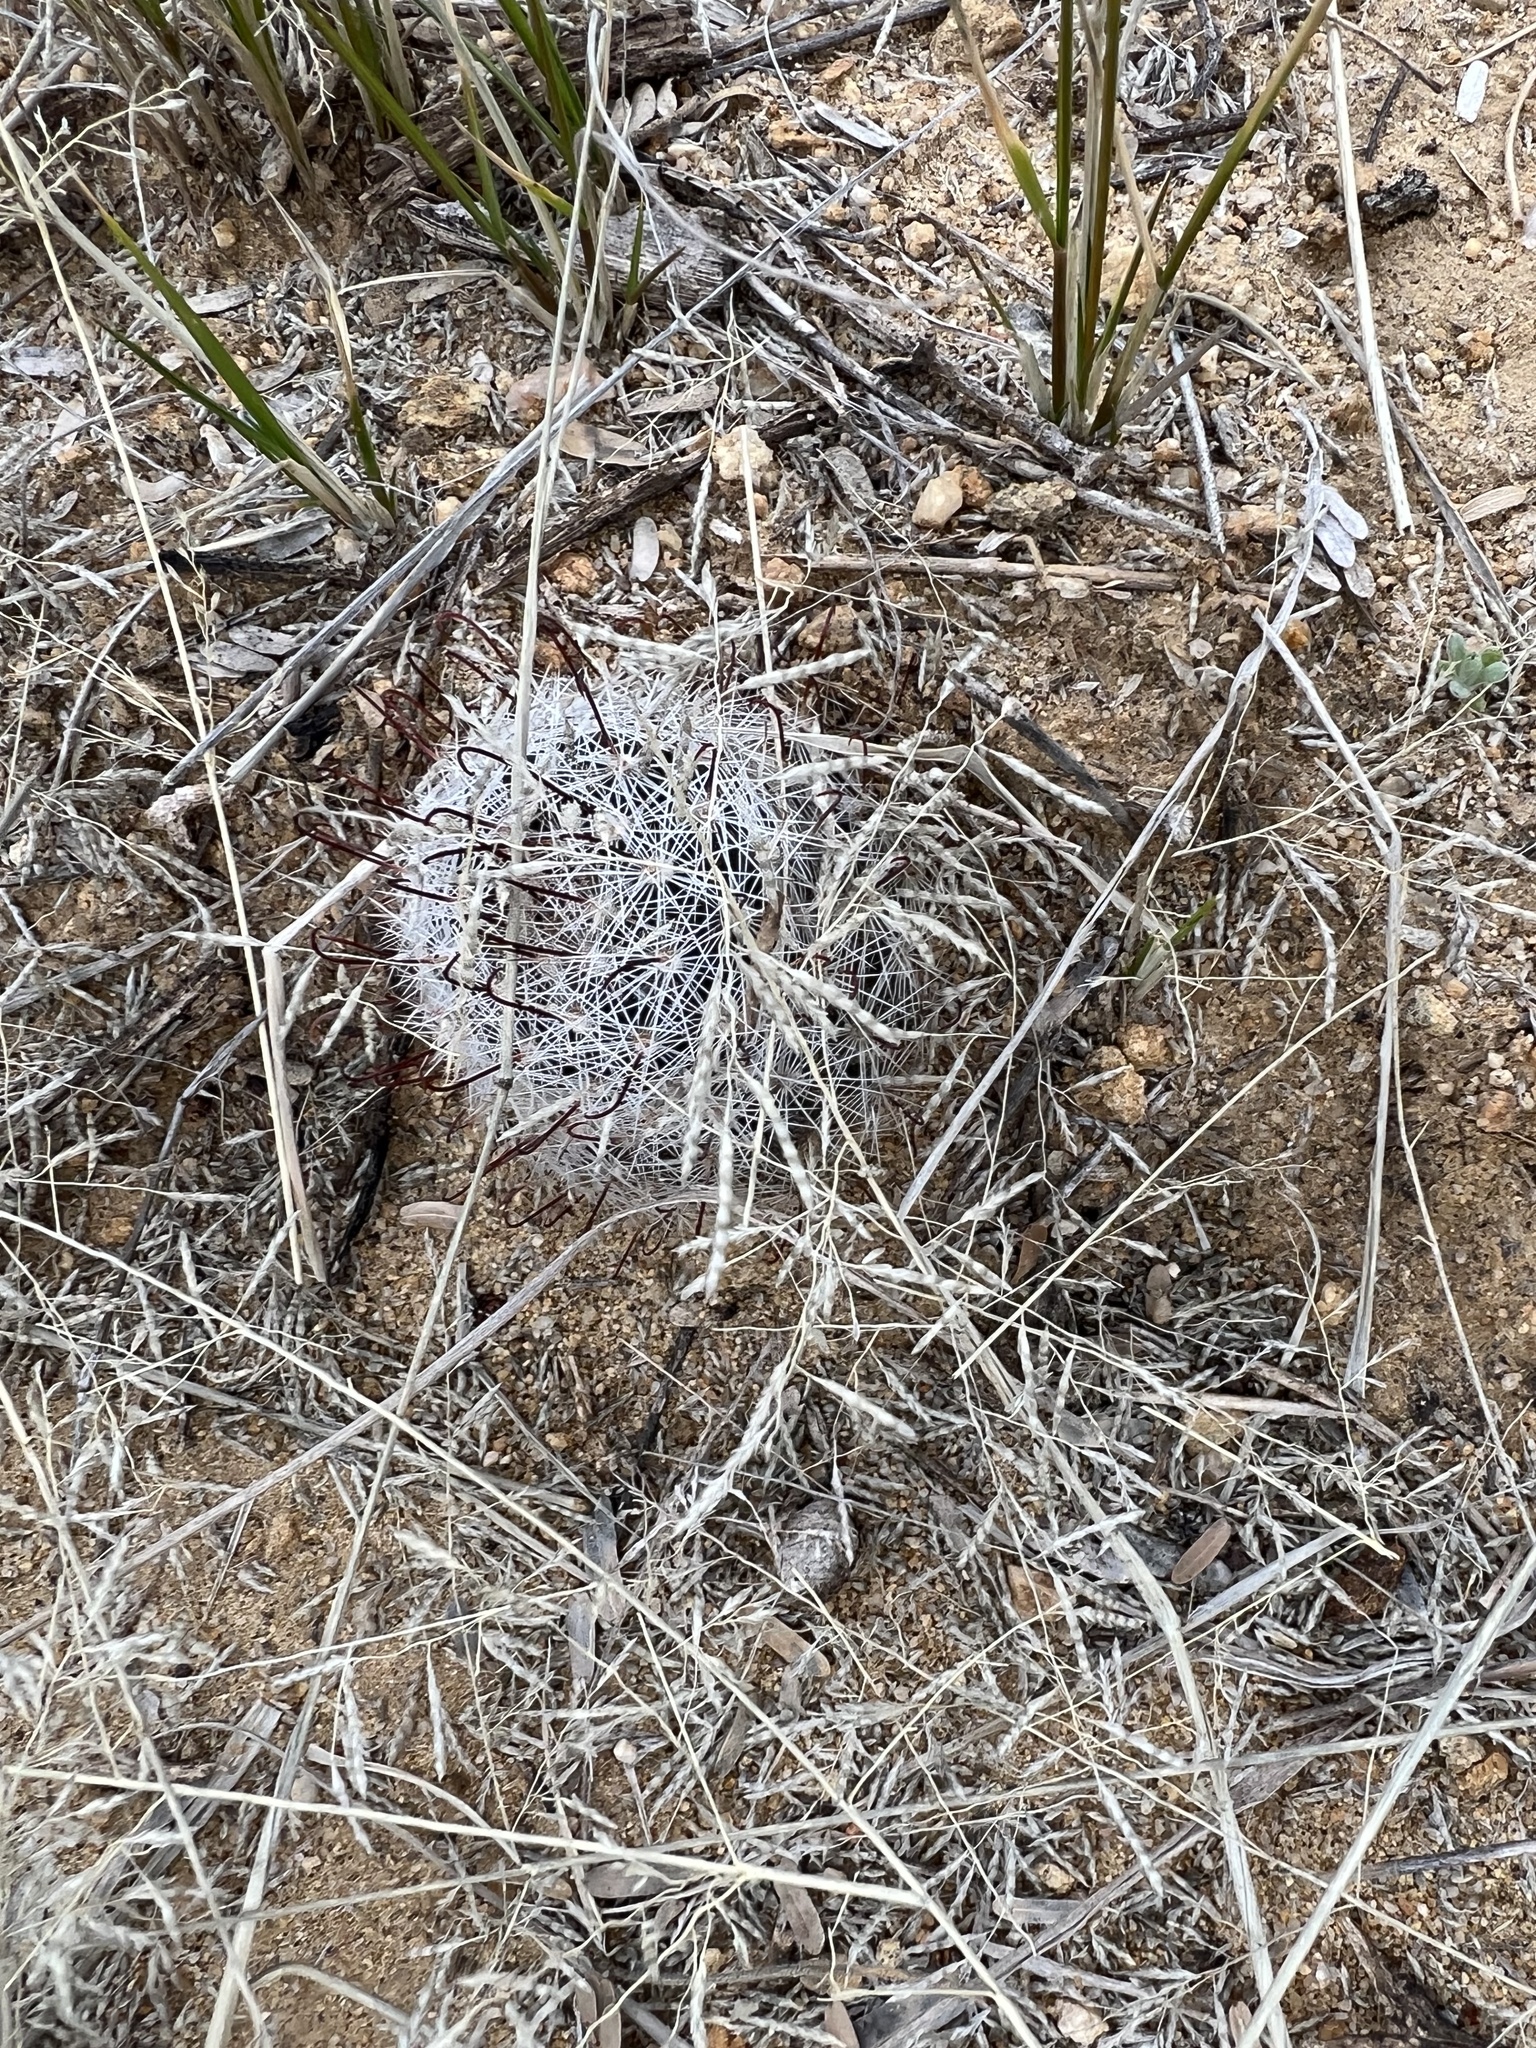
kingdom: Plantae
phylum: Tracheophyta
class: Magnoliopsida
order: Caryophyllales
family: Cactaceae
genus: Cochemiea
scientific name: Cochemiea grahamii
